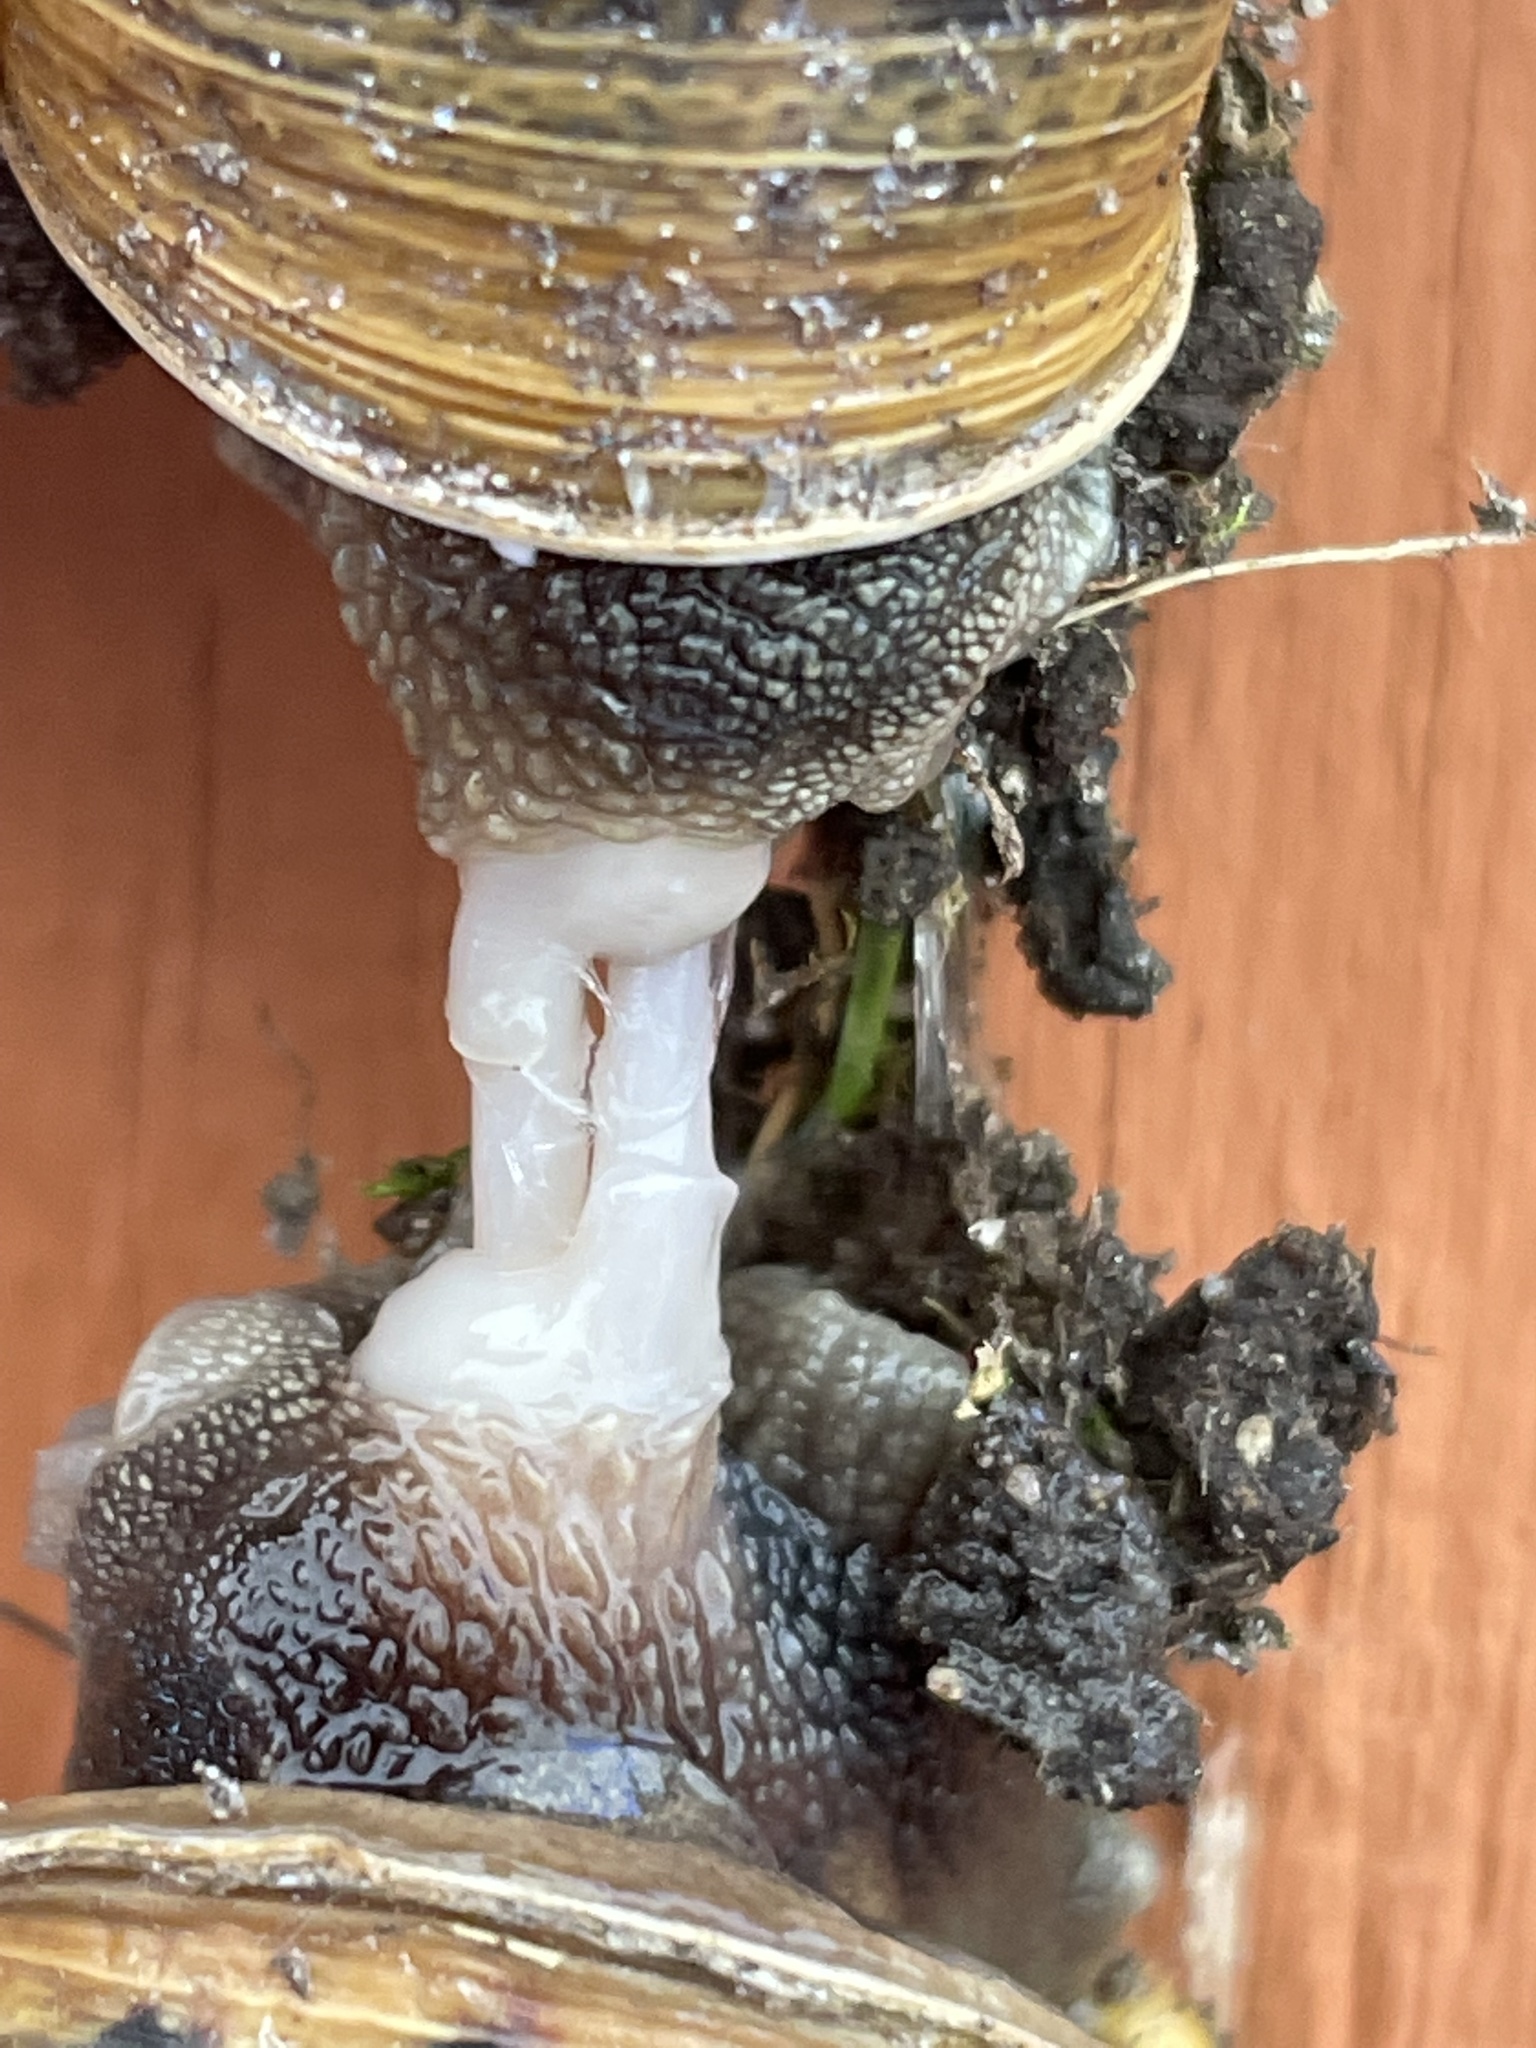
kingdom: Animalia
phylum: Mollusca
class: Gastropoda
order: Stylommatophora
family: Helicidae
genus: Cornu
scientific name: Cornu aspersum
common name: Brown garden snail
